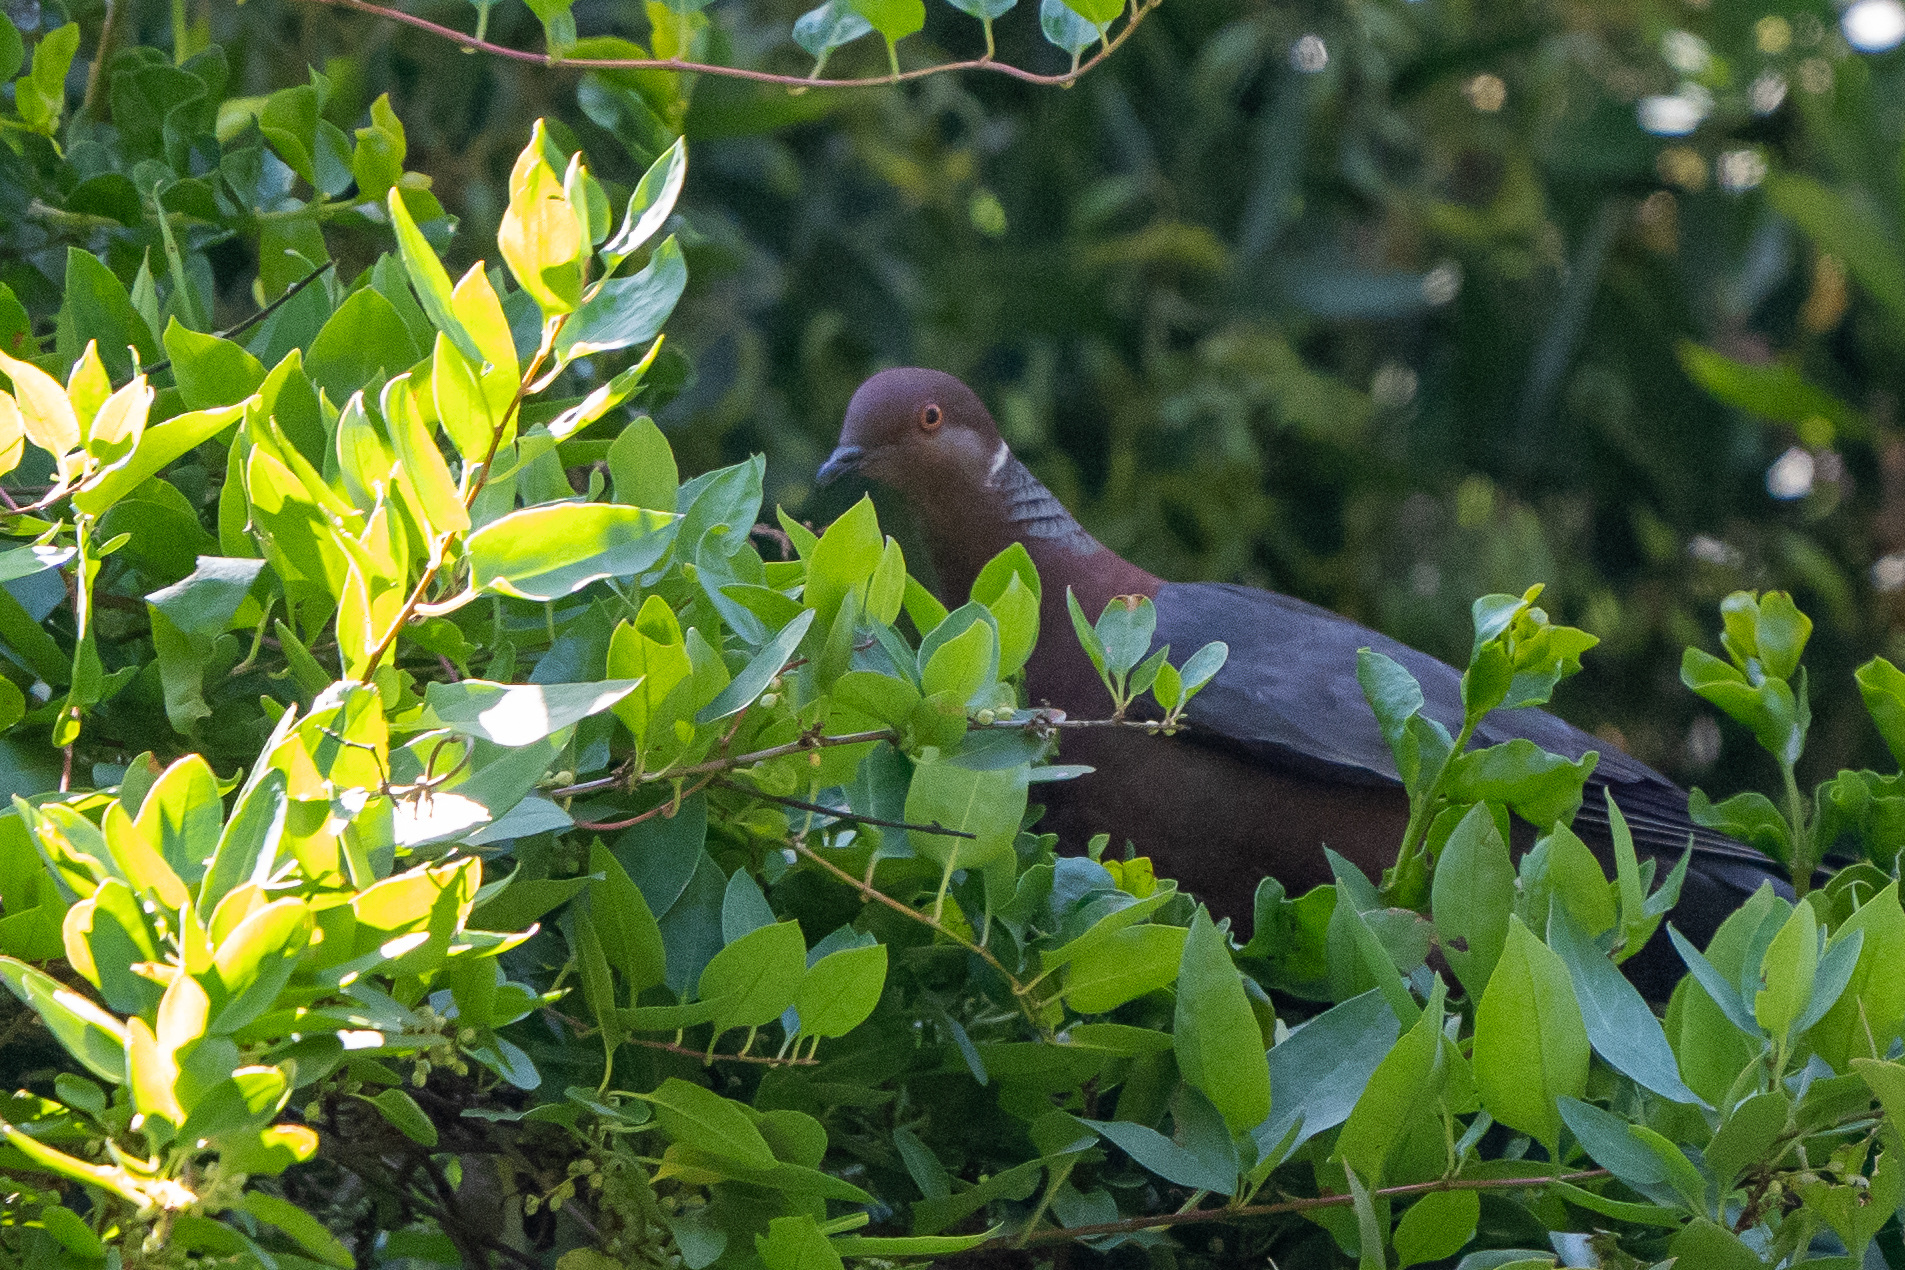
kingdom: Animalia
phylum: Chordata
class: Aves
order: Columbiformes
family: Columbidae
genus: Patagioenas
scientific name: Patagioenas araucana
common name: Chilean pigeon
